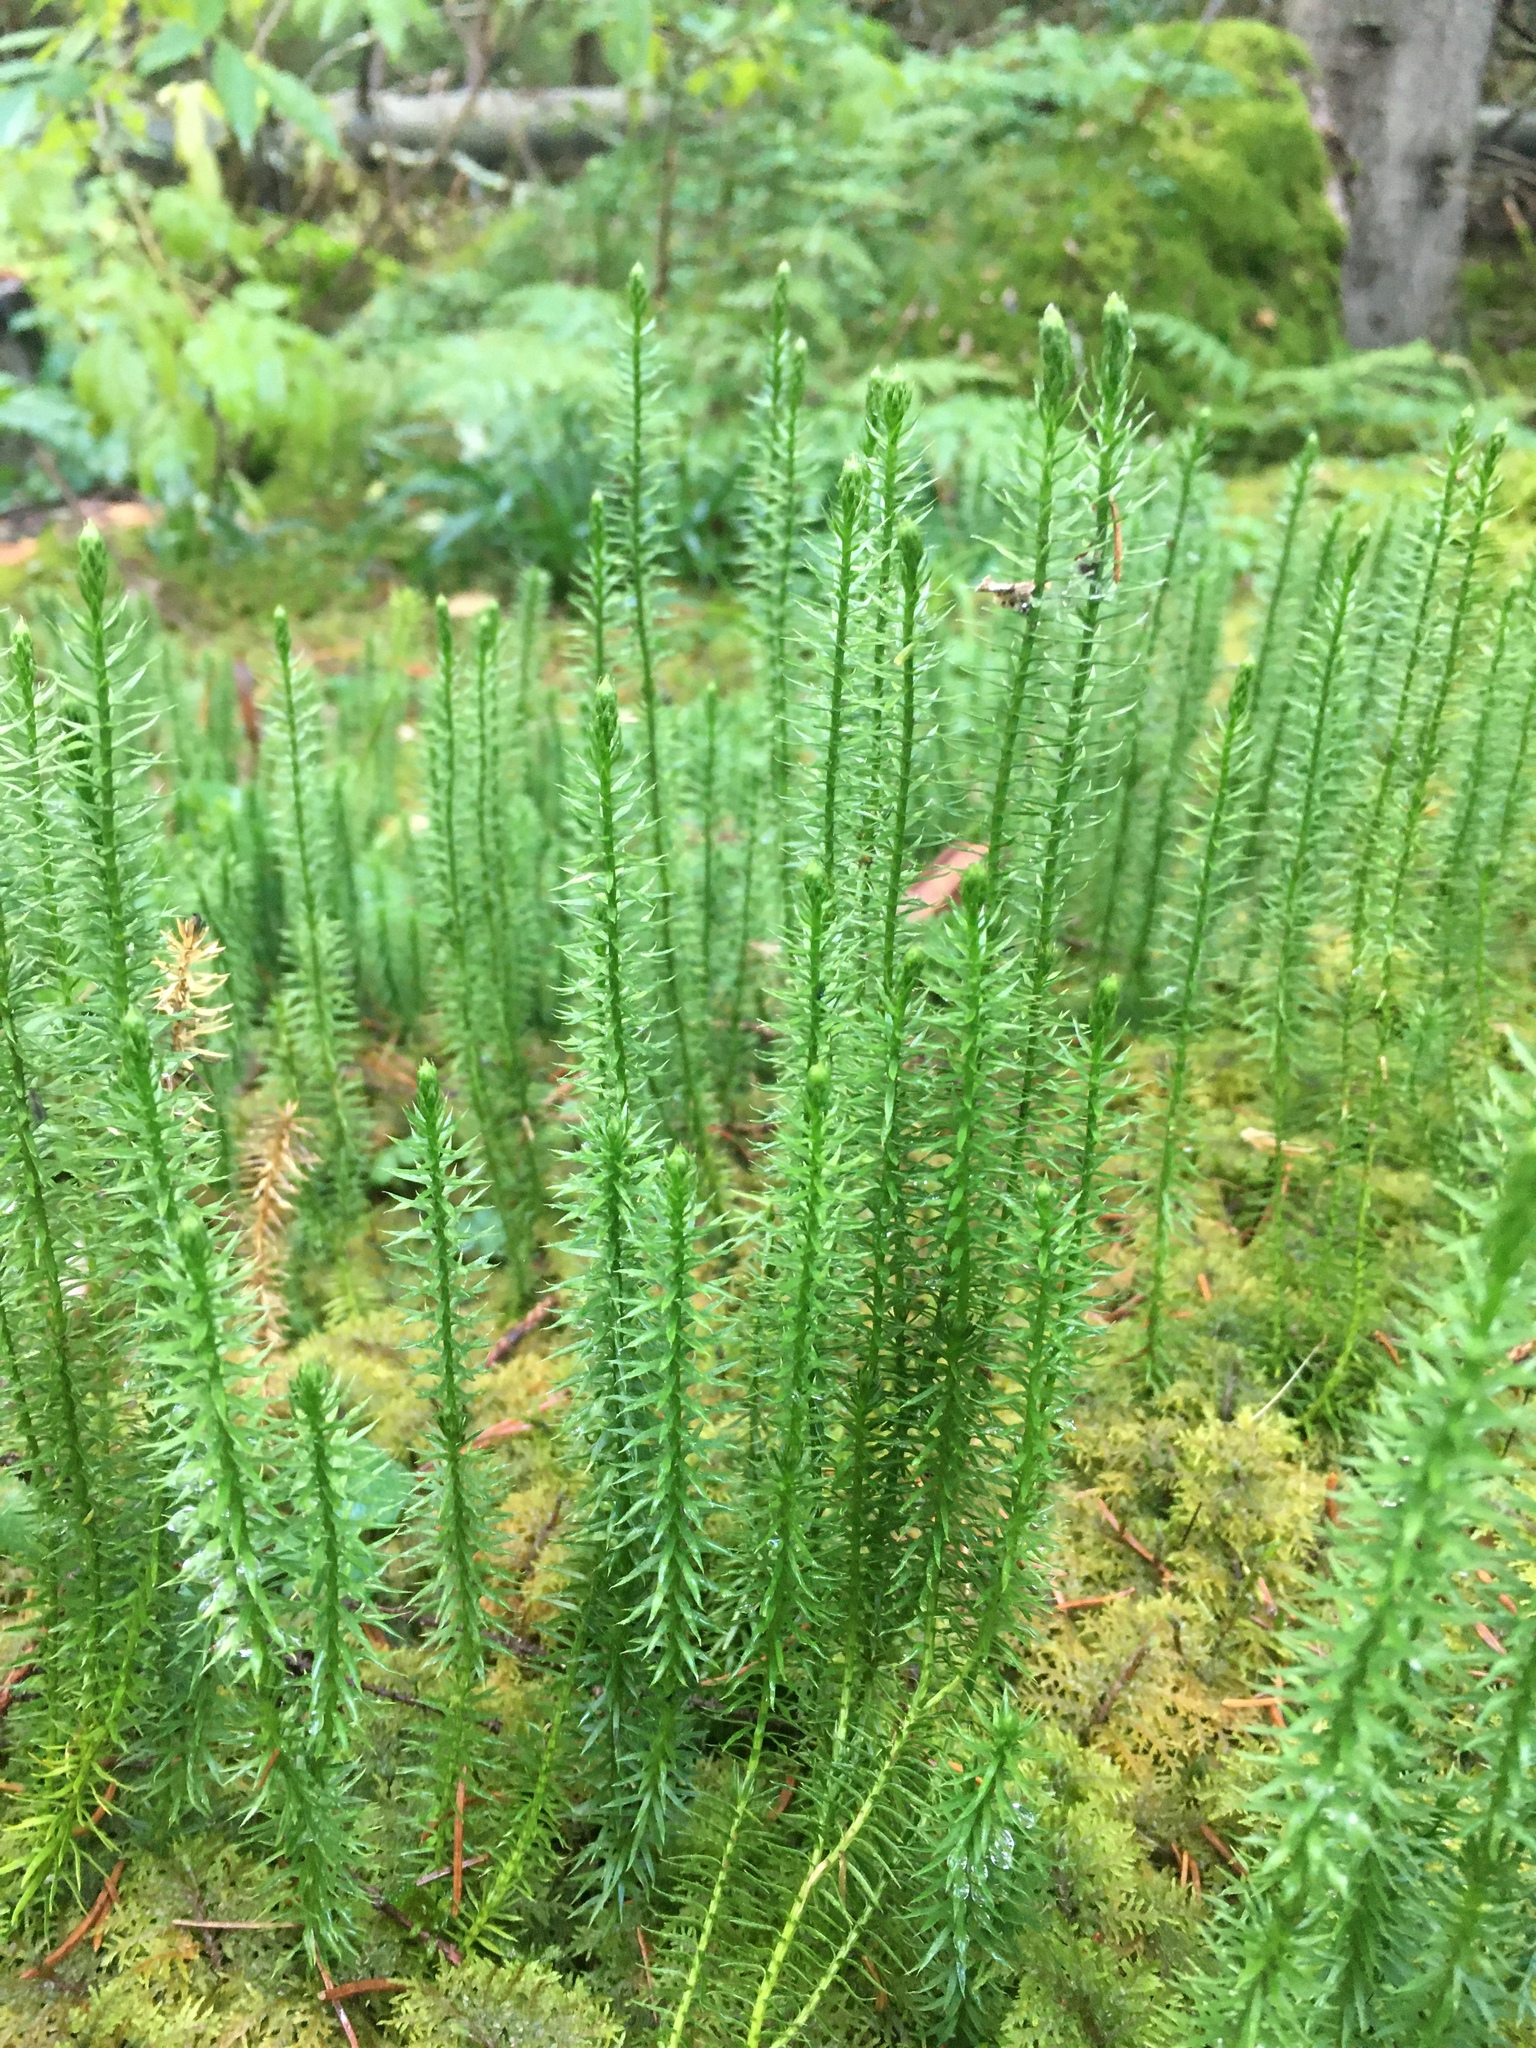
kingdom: Plantae
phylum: Tracheophyta
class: Lycopodiopsida
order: Lycopodiales
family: Lycopodiaceae
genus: Spinulum
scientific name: Spinulum annotinum
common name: Interrupted club-moss
